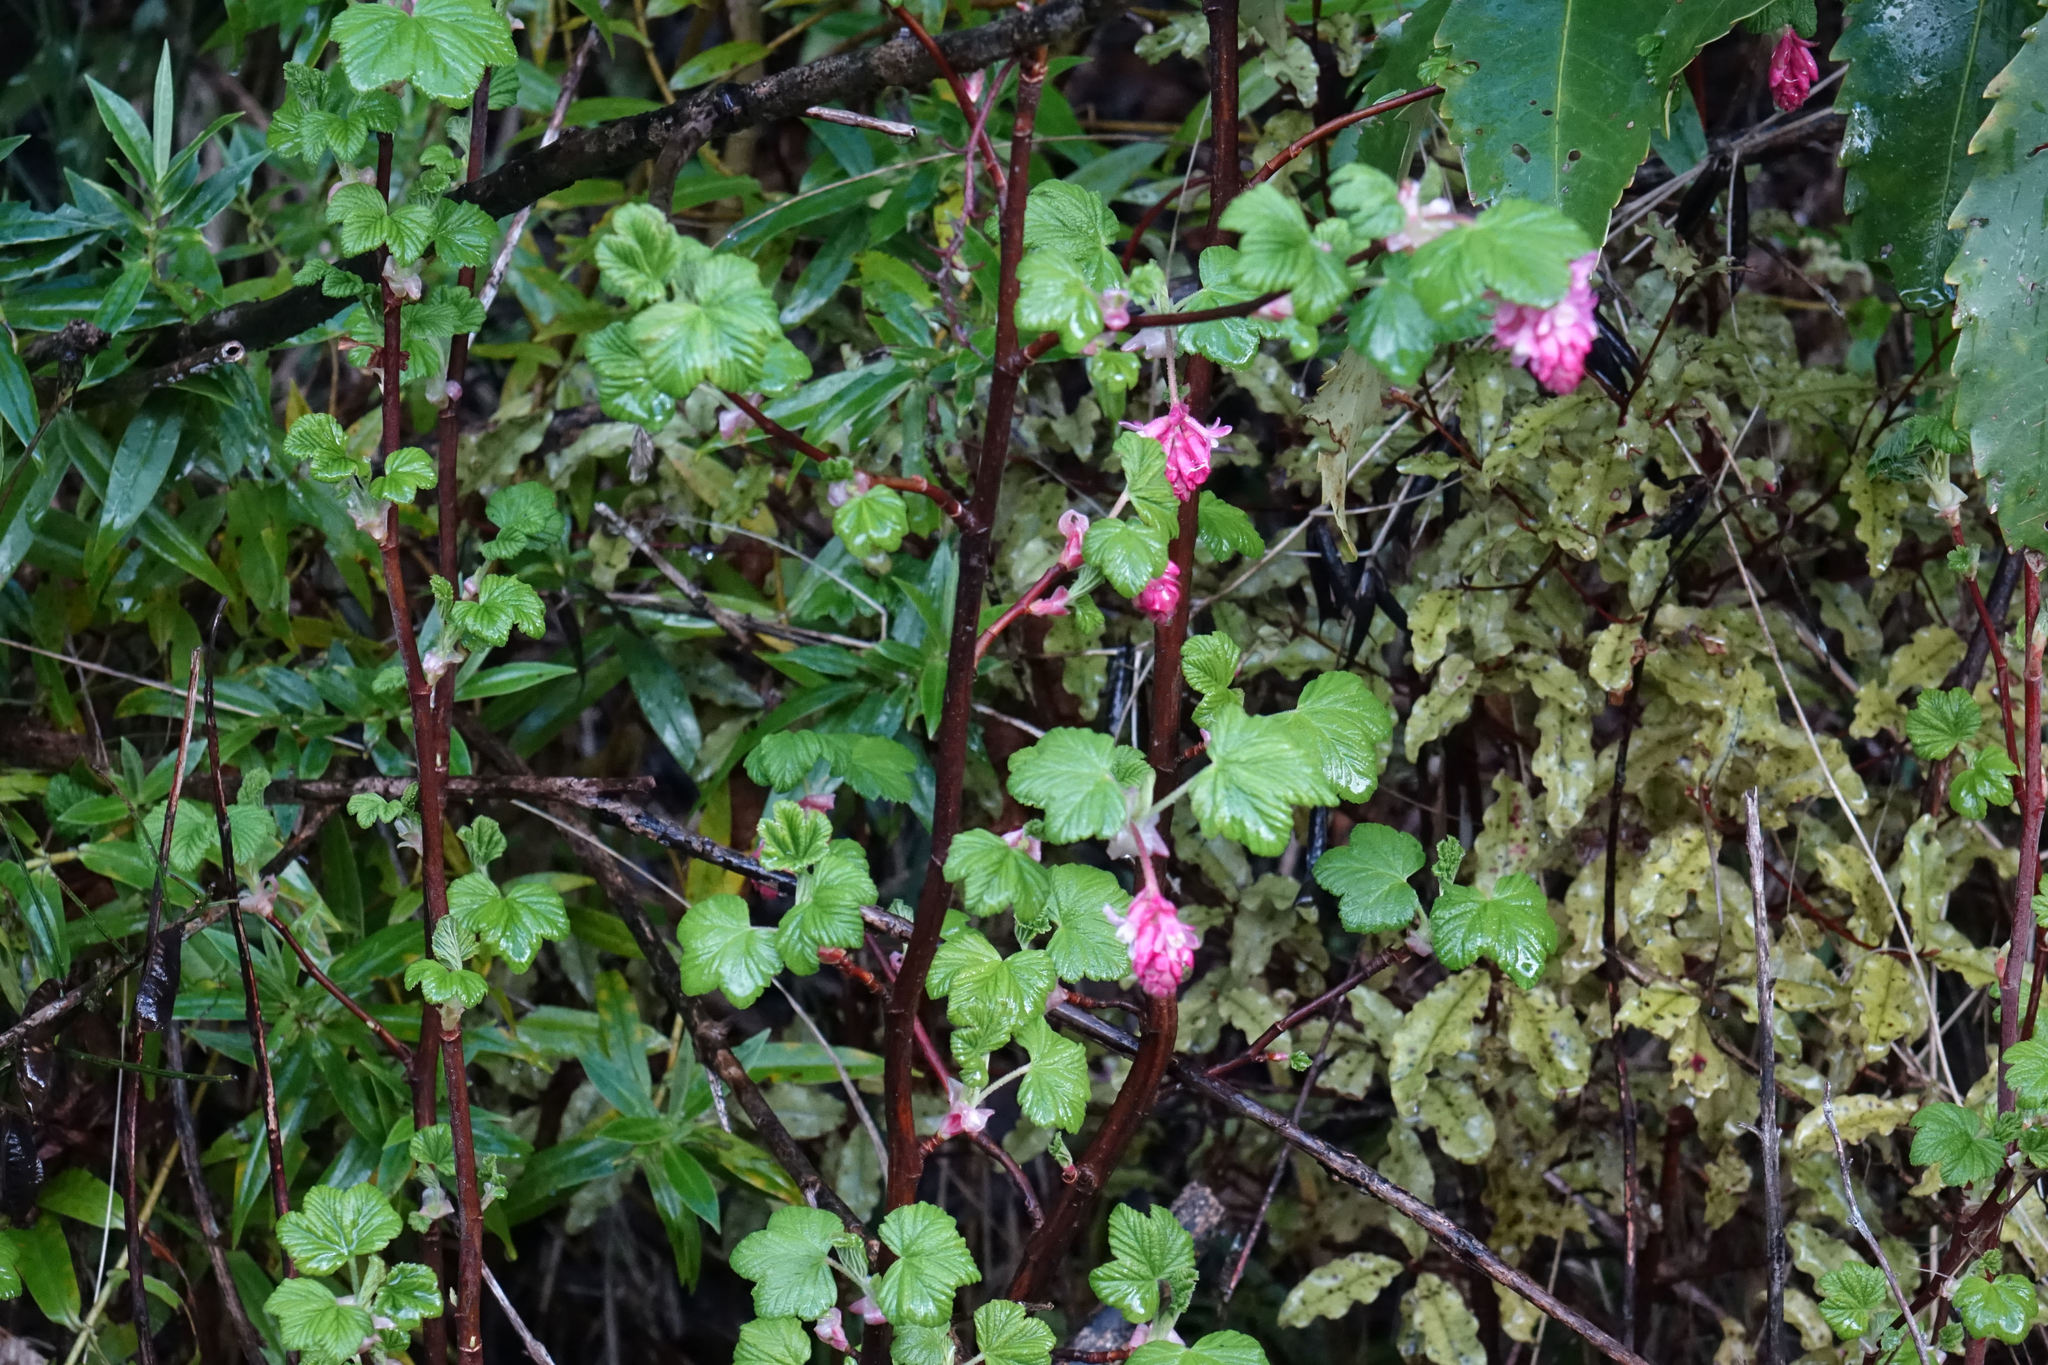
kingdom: Plantae
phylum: Tracheophyta
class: Magnoliopsida
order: Saxifragales
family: Grossulariaceae
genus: Ribes
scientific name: Ribes sanguineum
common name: Flowering currant
